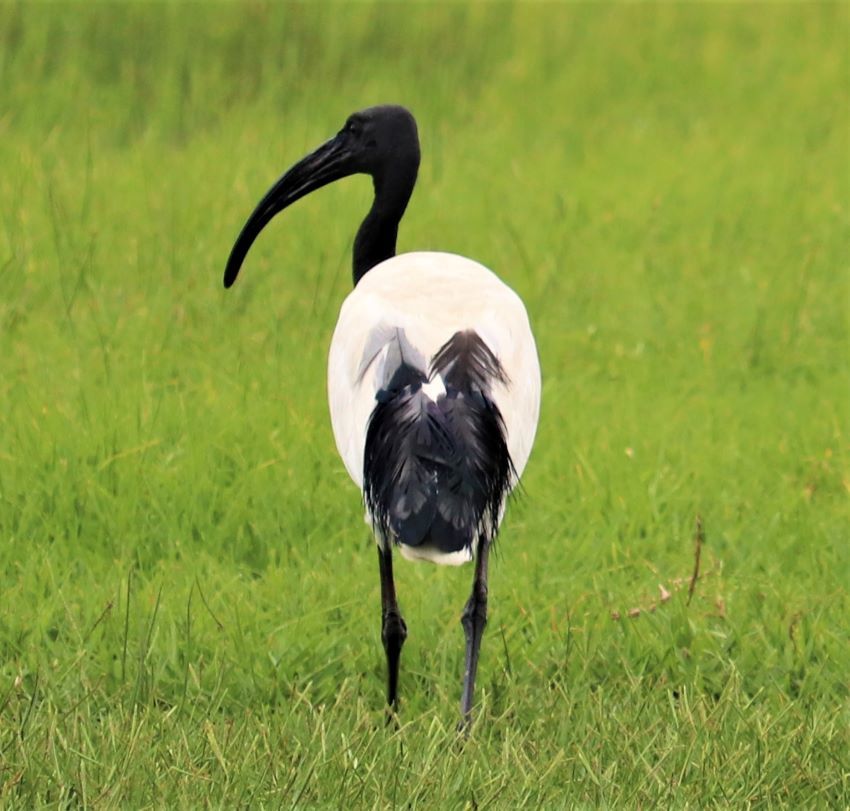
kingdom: Animalia
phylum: Chordata
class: Aves
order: Pelecaniformes
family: Threskiornithidae
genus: Threskiornis
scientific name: Threskiornis aethiopicus
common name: Sacred ibis
